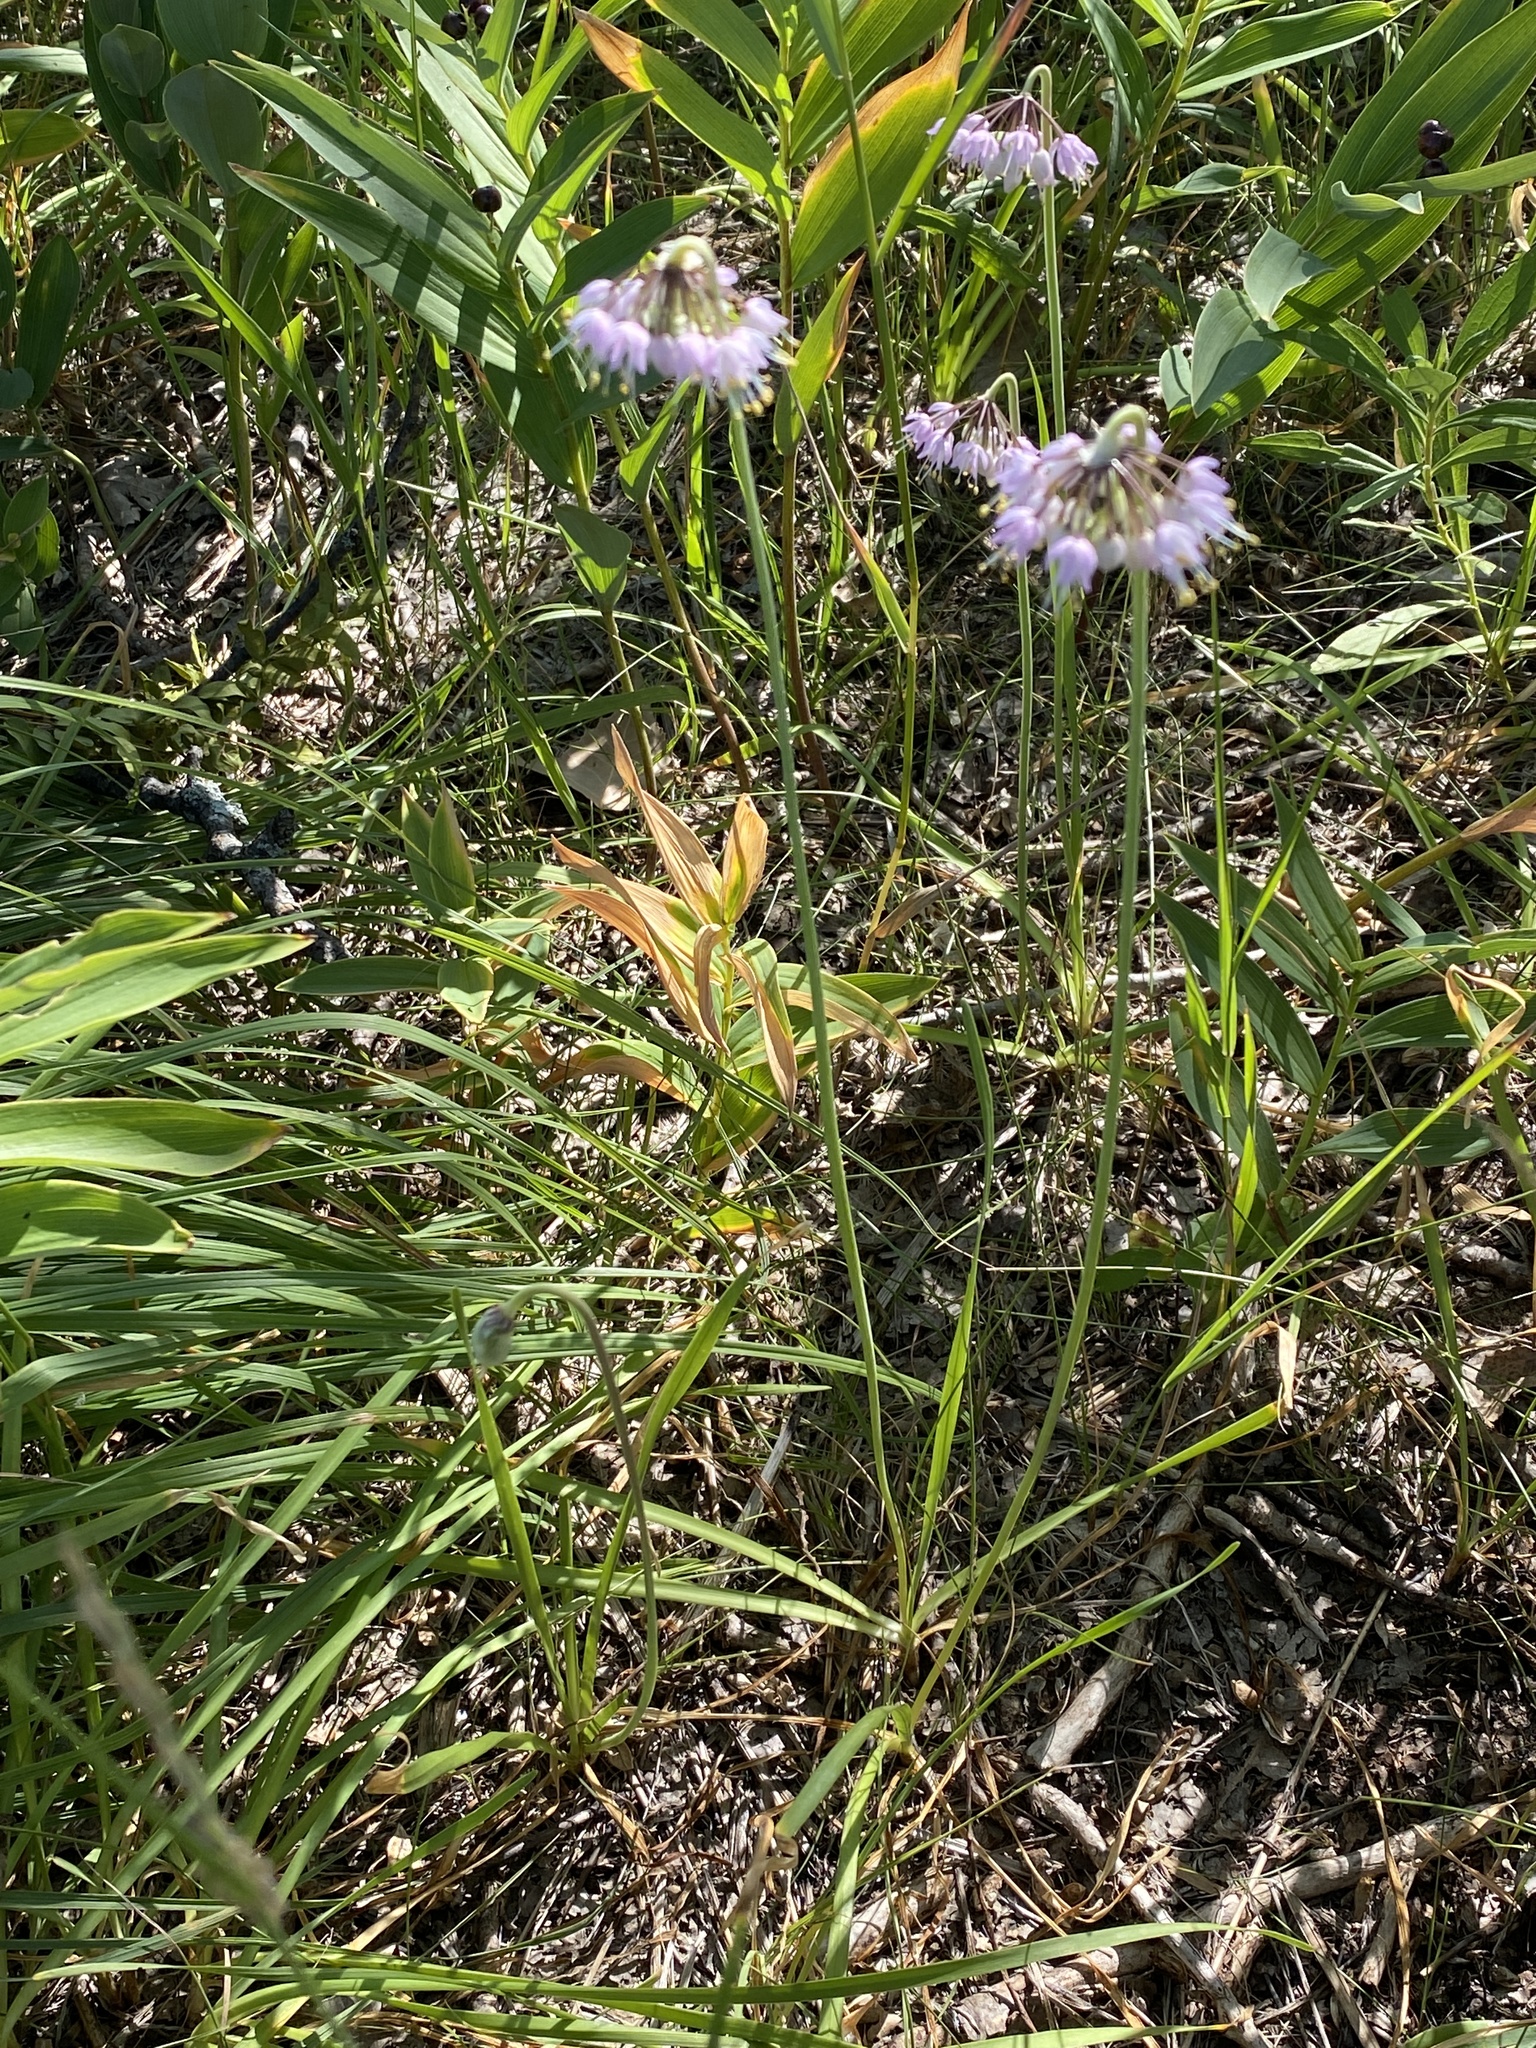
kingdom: Plantae
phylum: Tracheophyta
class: Liliopsida
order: Asparagales
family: Amaryllidaceae
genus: Allium
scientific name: Allium cernuum
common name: Nodding onion
